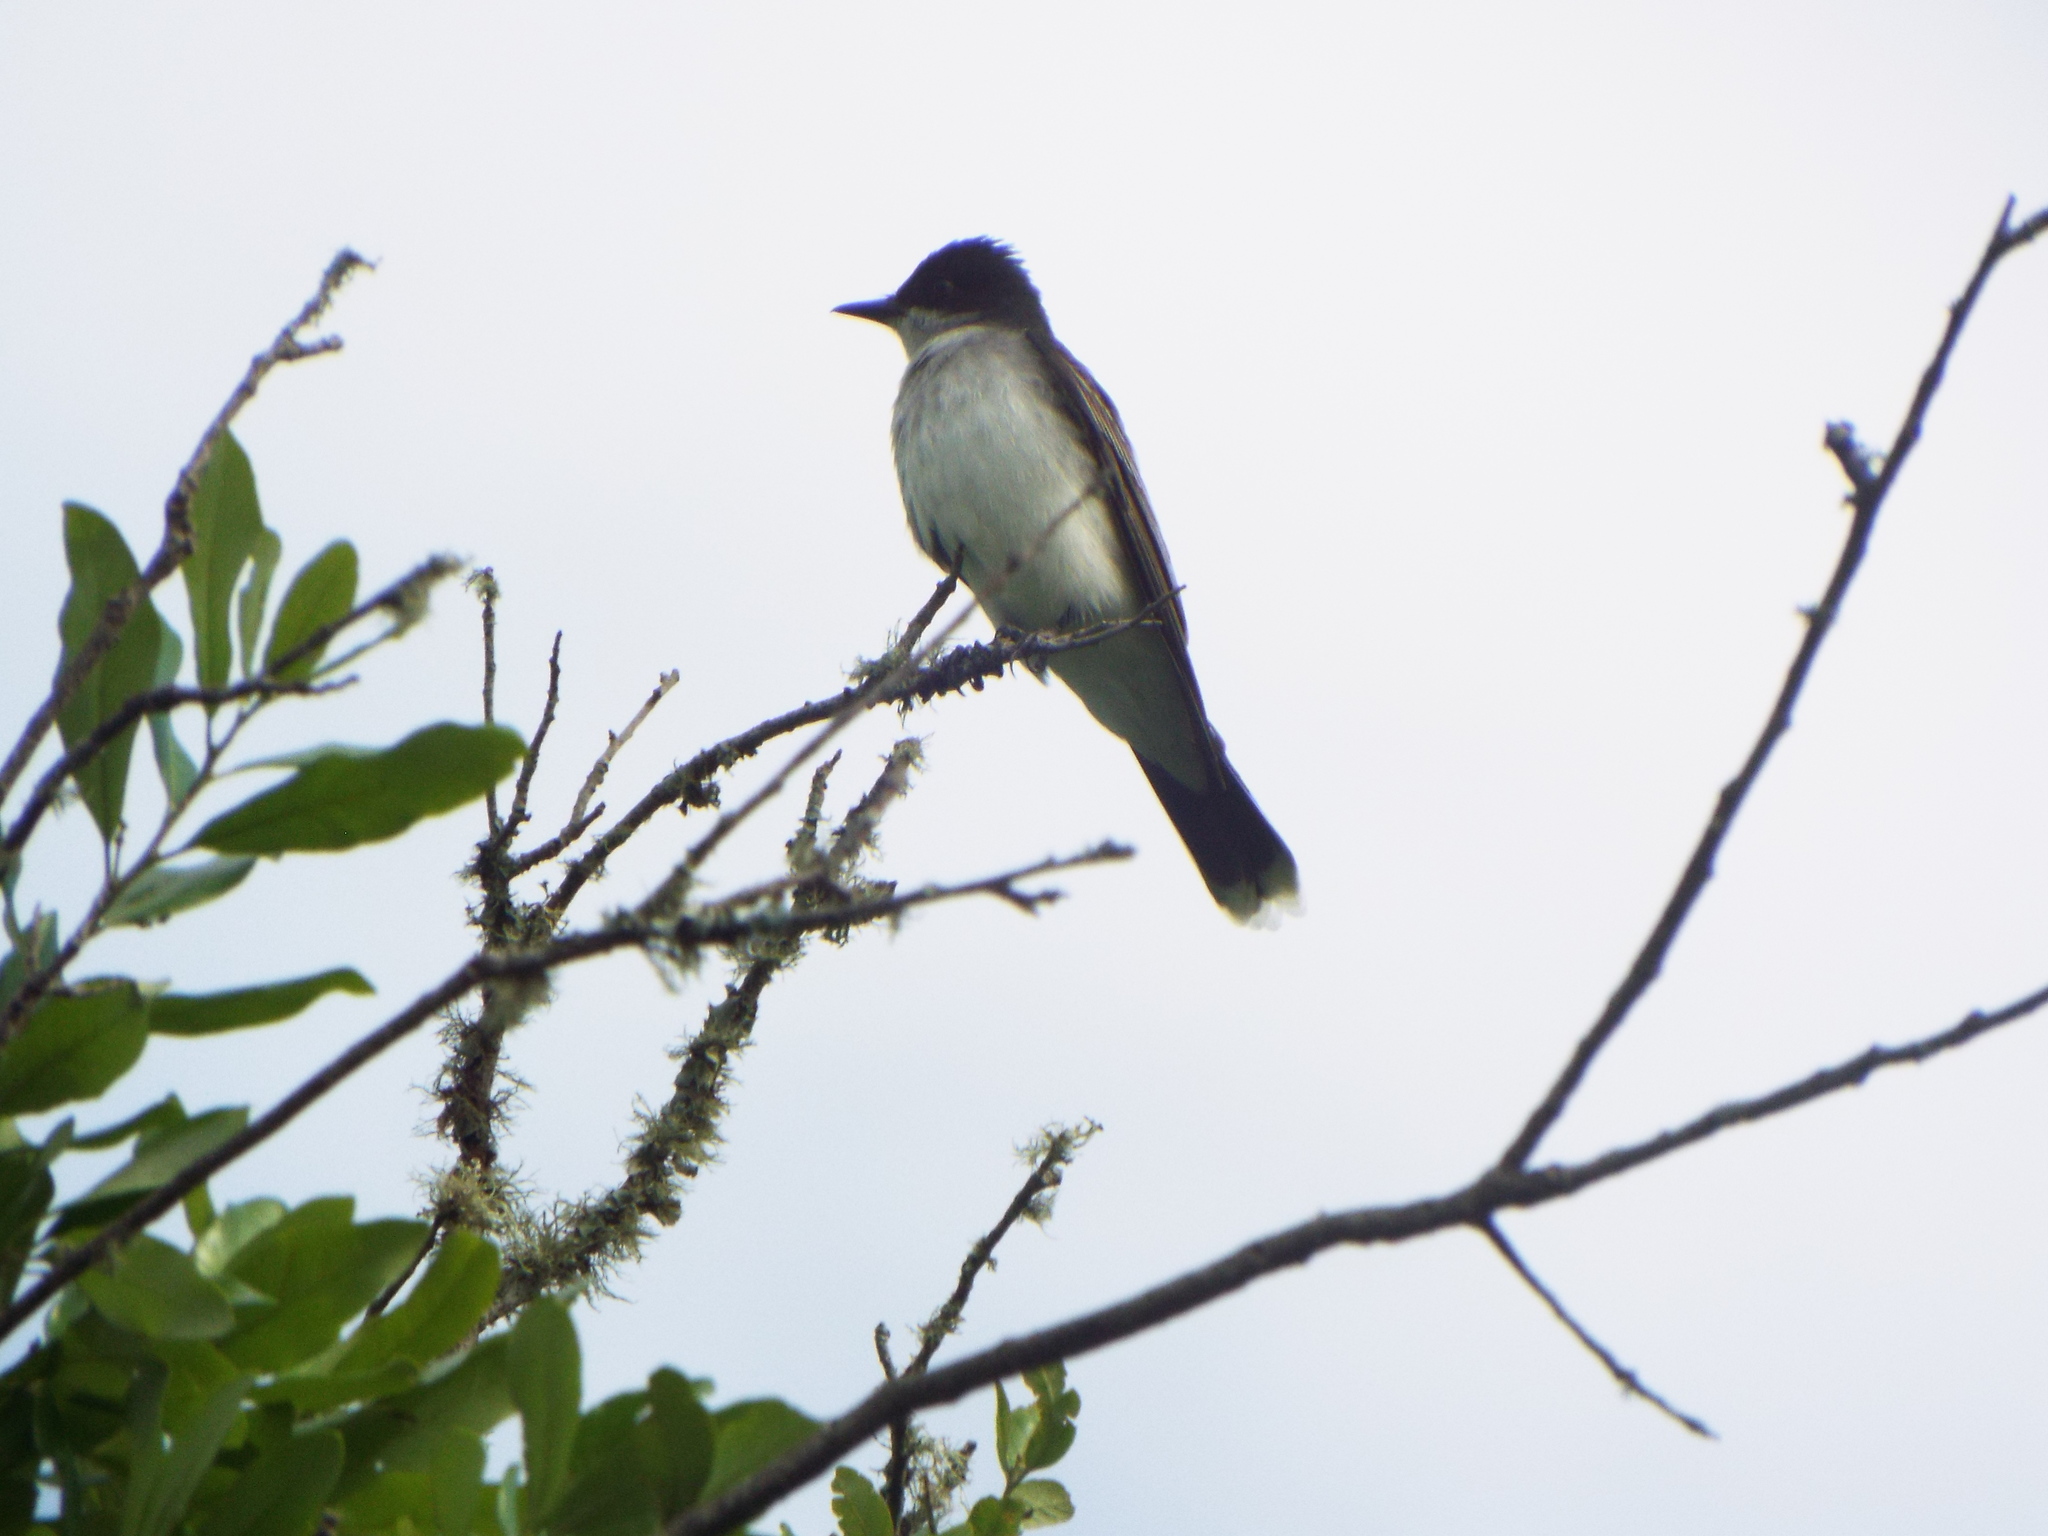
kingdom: Animalia
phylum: Chordata
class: Aves
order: Passeriformes
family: Tyrannidae
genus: Tyrannus
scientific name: Tyrannus tyrannus
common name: Eastern kingbird
